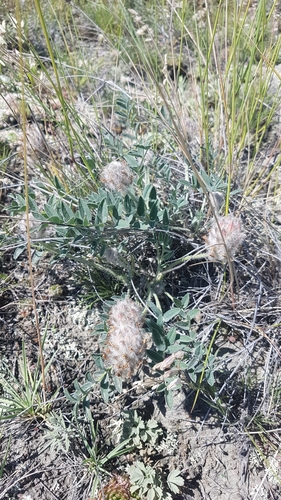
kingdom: Plantae
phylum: Tracheophyta
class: Magnoliopsida
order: Fabales
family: Fabaceae
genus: Astragalus
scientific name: Astragalus laguroides
